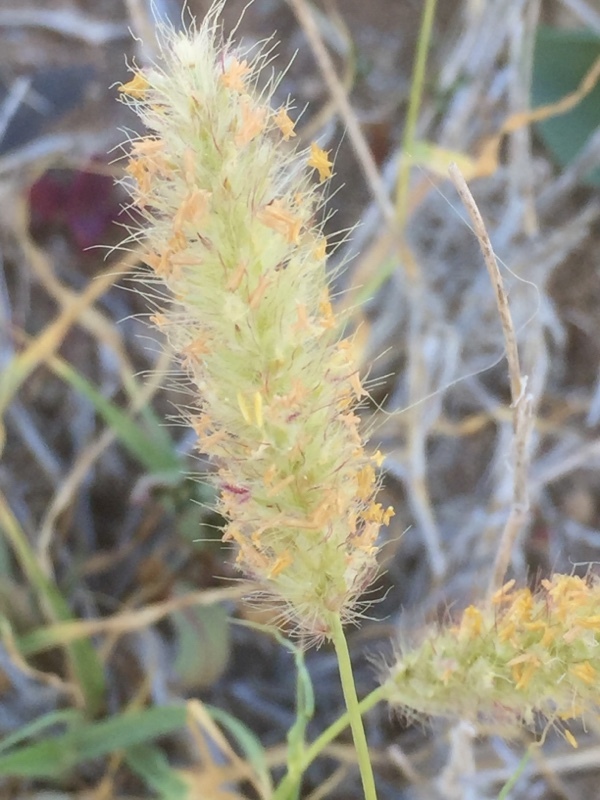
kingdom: Plantae
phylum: Tracheophyta
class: Liliopsida
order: Poales
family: Poaceae
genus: Cenchrus
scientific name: Cenchrus ciliaris
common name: Buffelgrass
